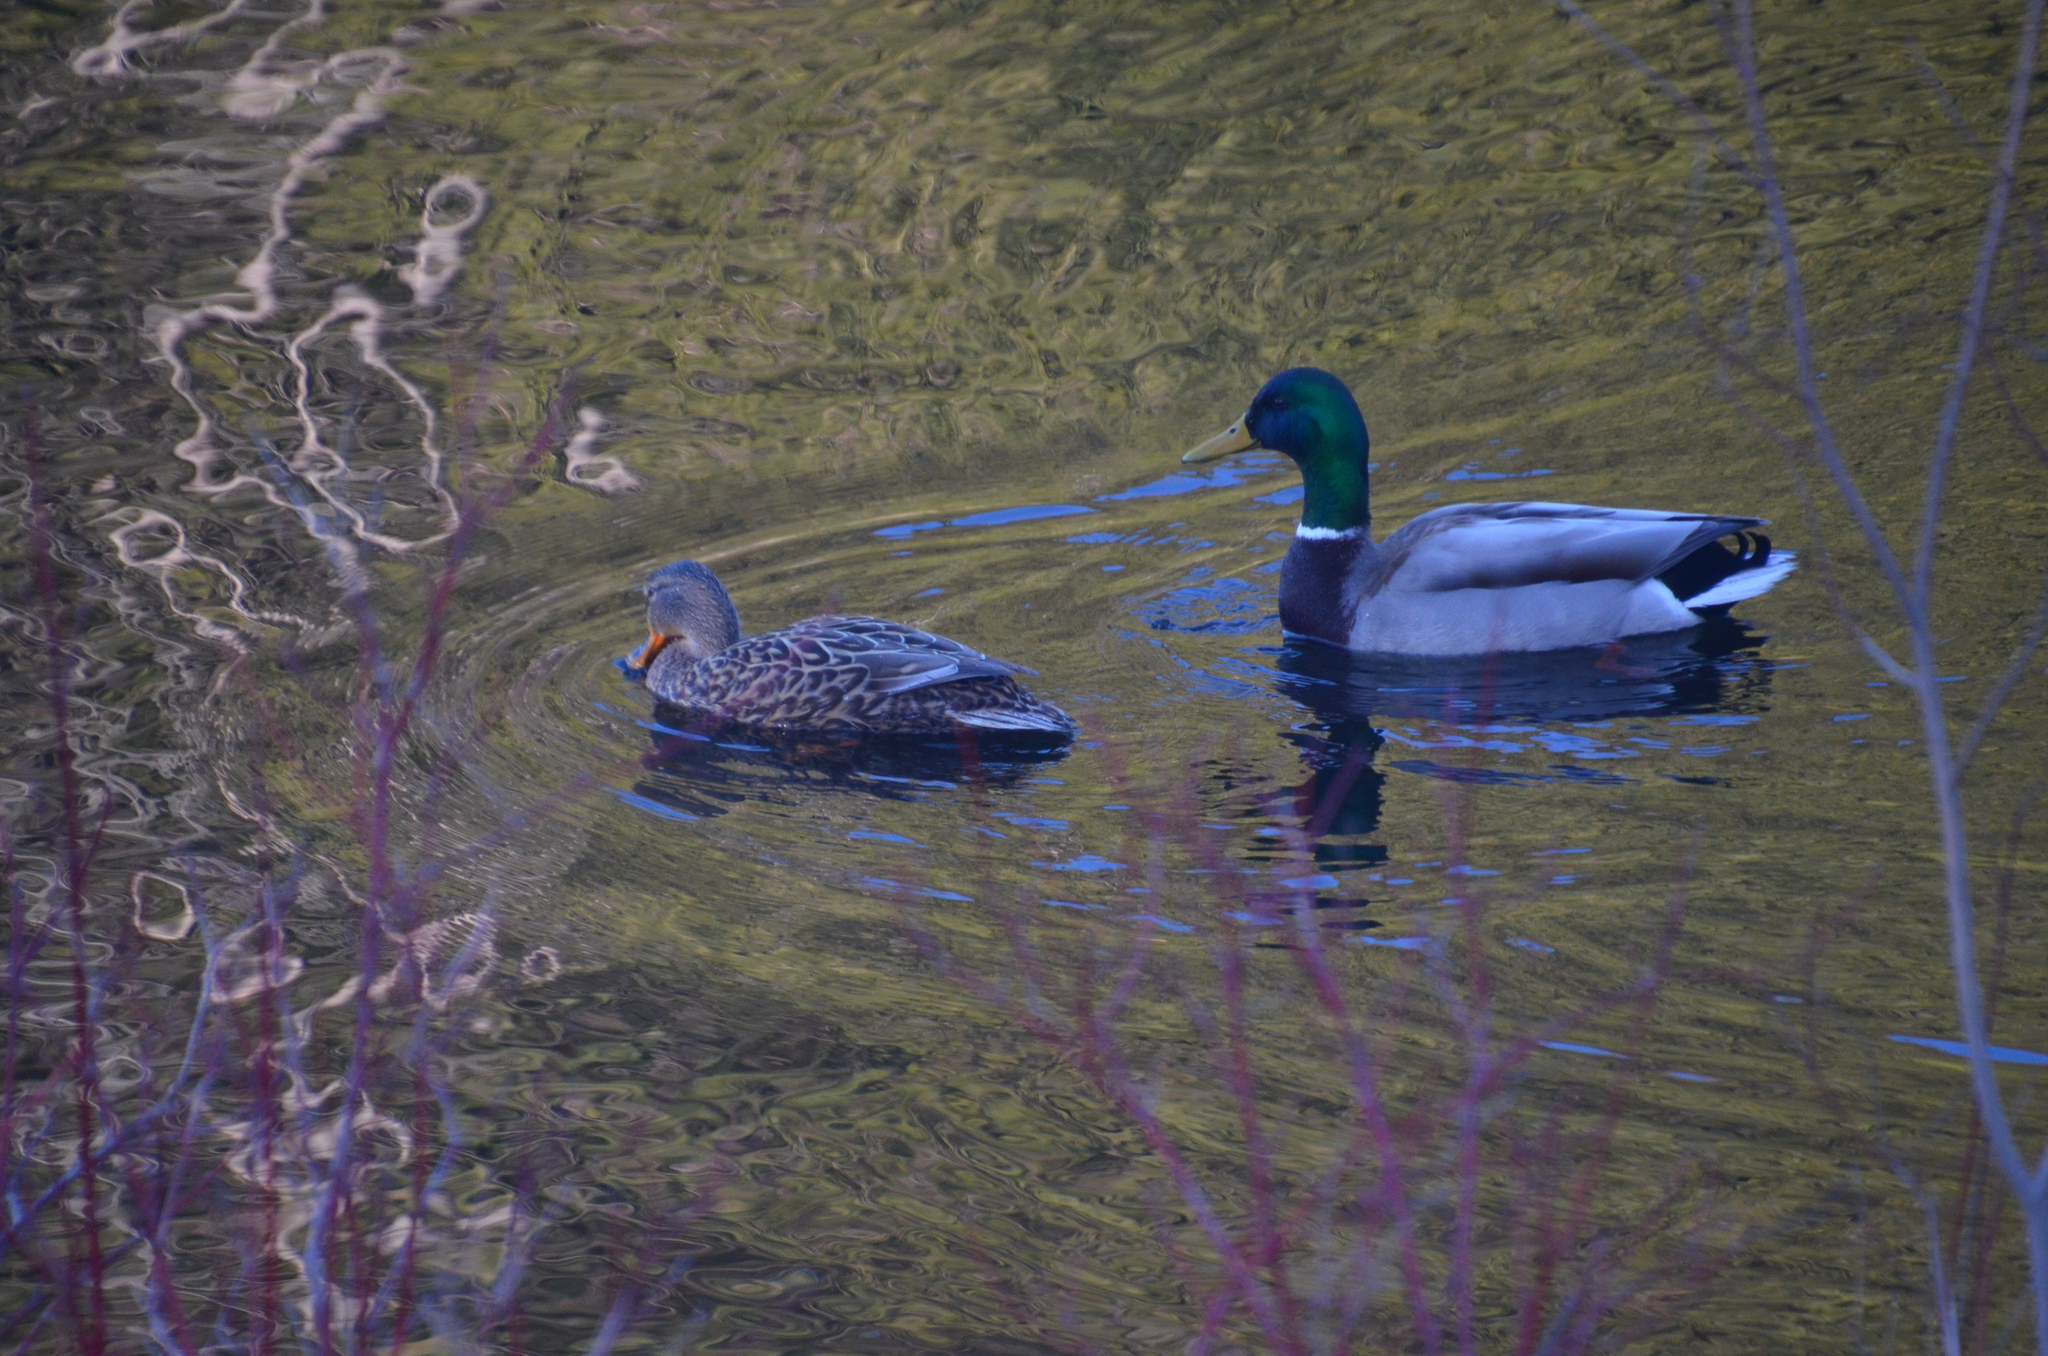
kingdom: Animalia
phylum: Chordata
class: Aves
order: Anseriformes
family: Anatidae
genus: Anas
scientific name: Anas platyrhynchos
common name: Mallard
